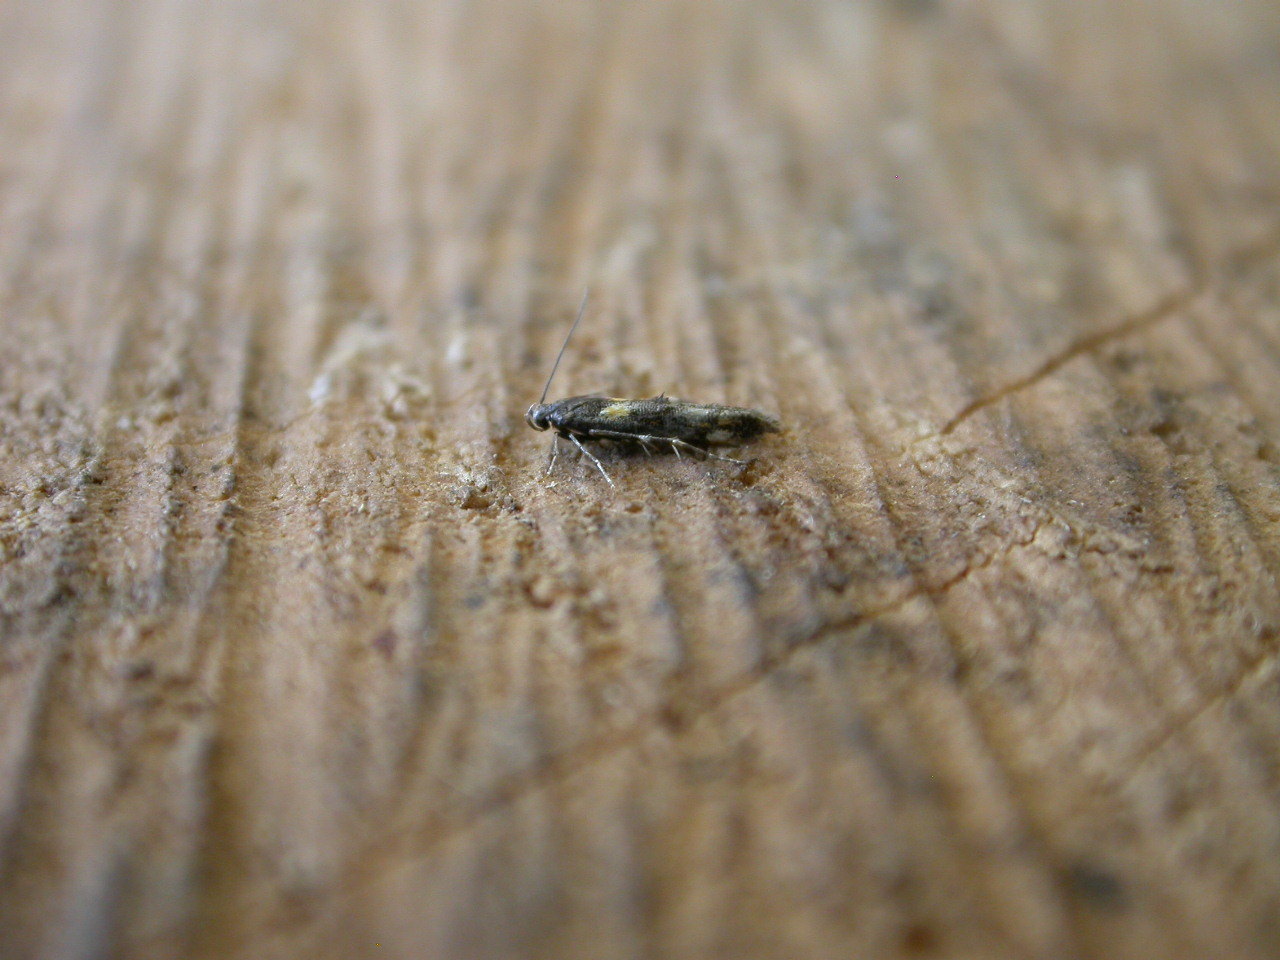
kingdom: Animalia
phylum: Arthropoda
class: Insecta
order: Lepidoptera
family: Momphidae
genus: Mompha
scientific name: Mompha raschkiella
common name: Little cosmet
